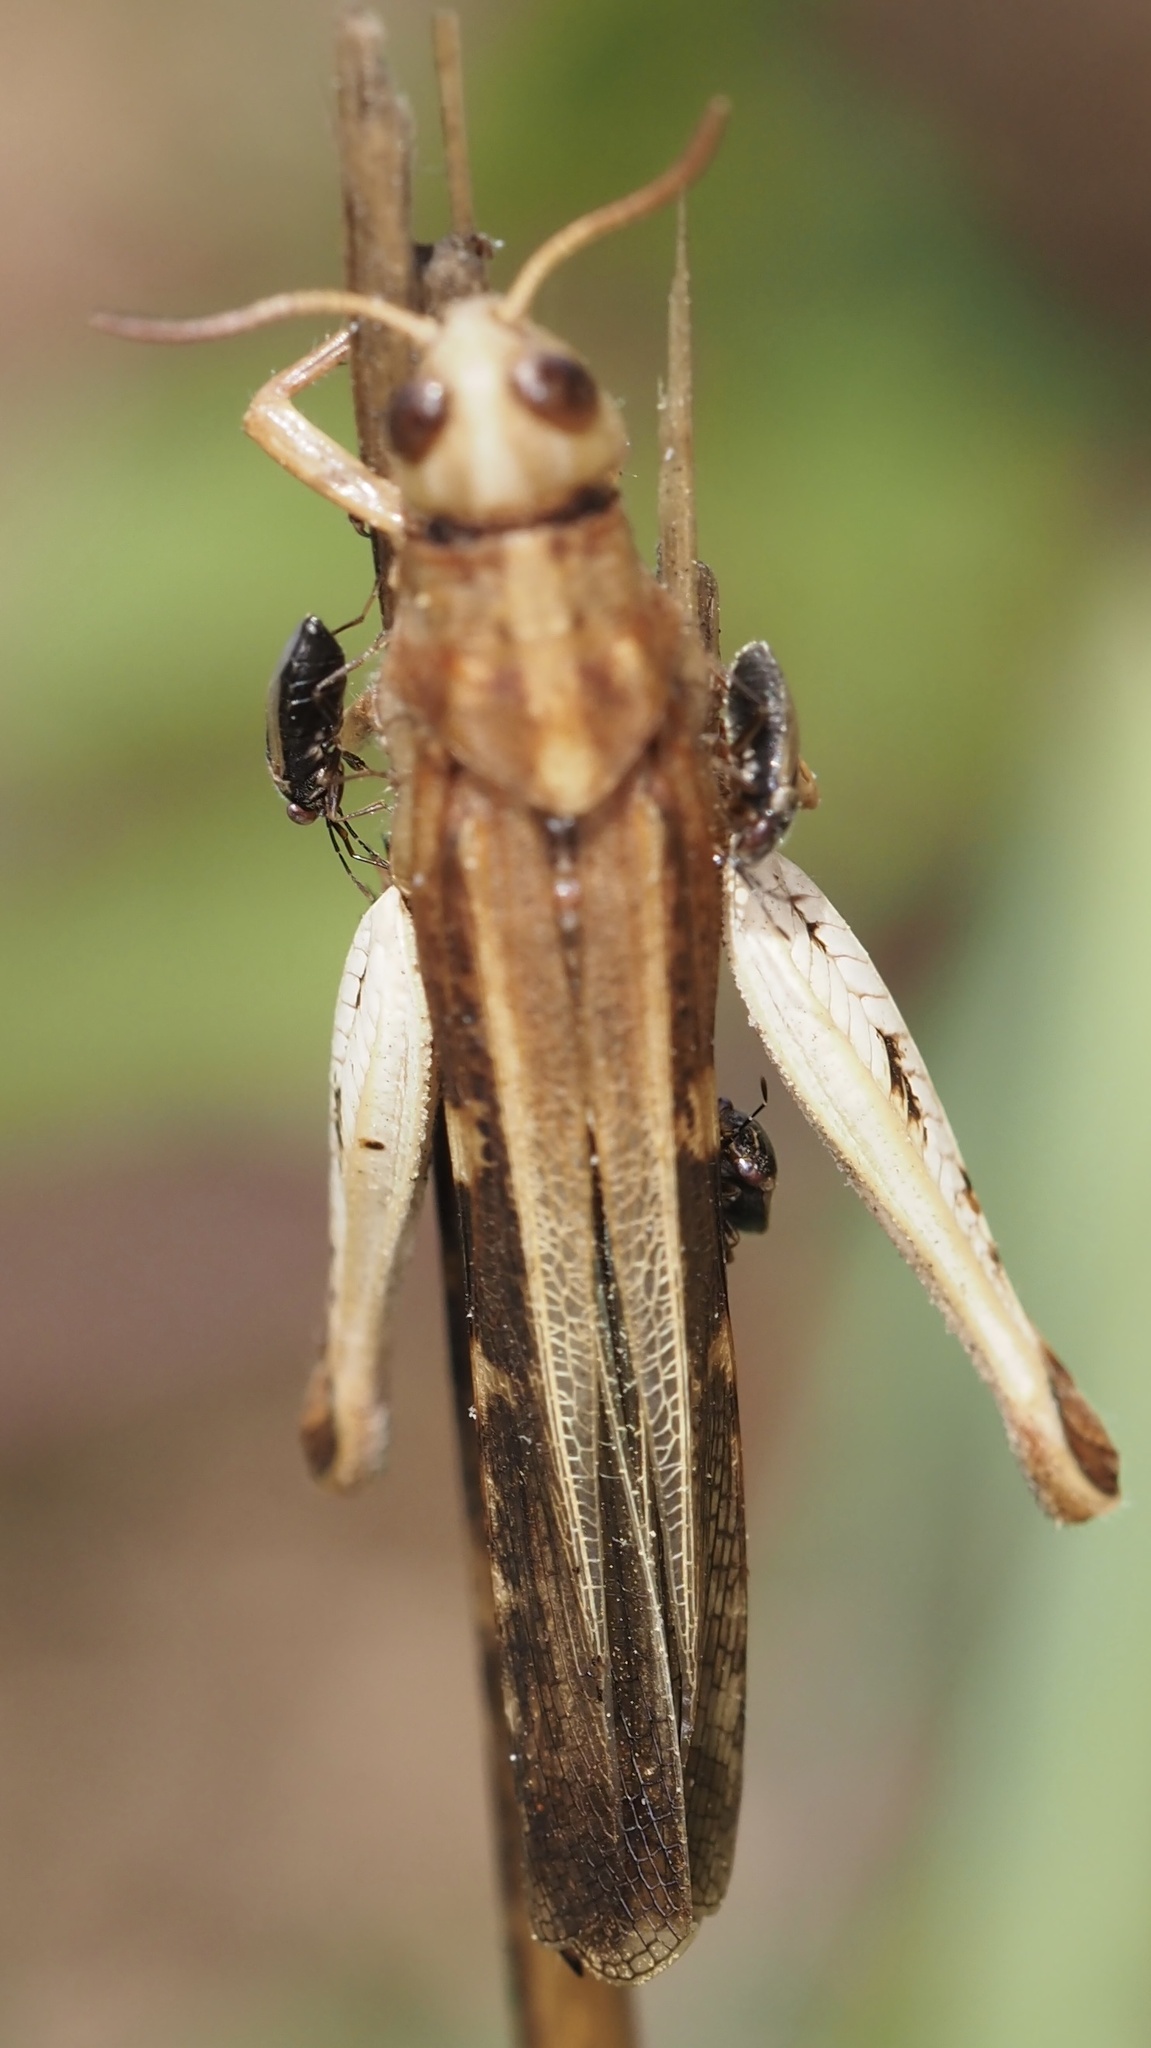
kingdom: Animalia
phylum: Arthropoda
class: Insecta
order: Orthoptera
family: Acrididae
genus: Aiolopus
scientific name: Aiolopus strepens
